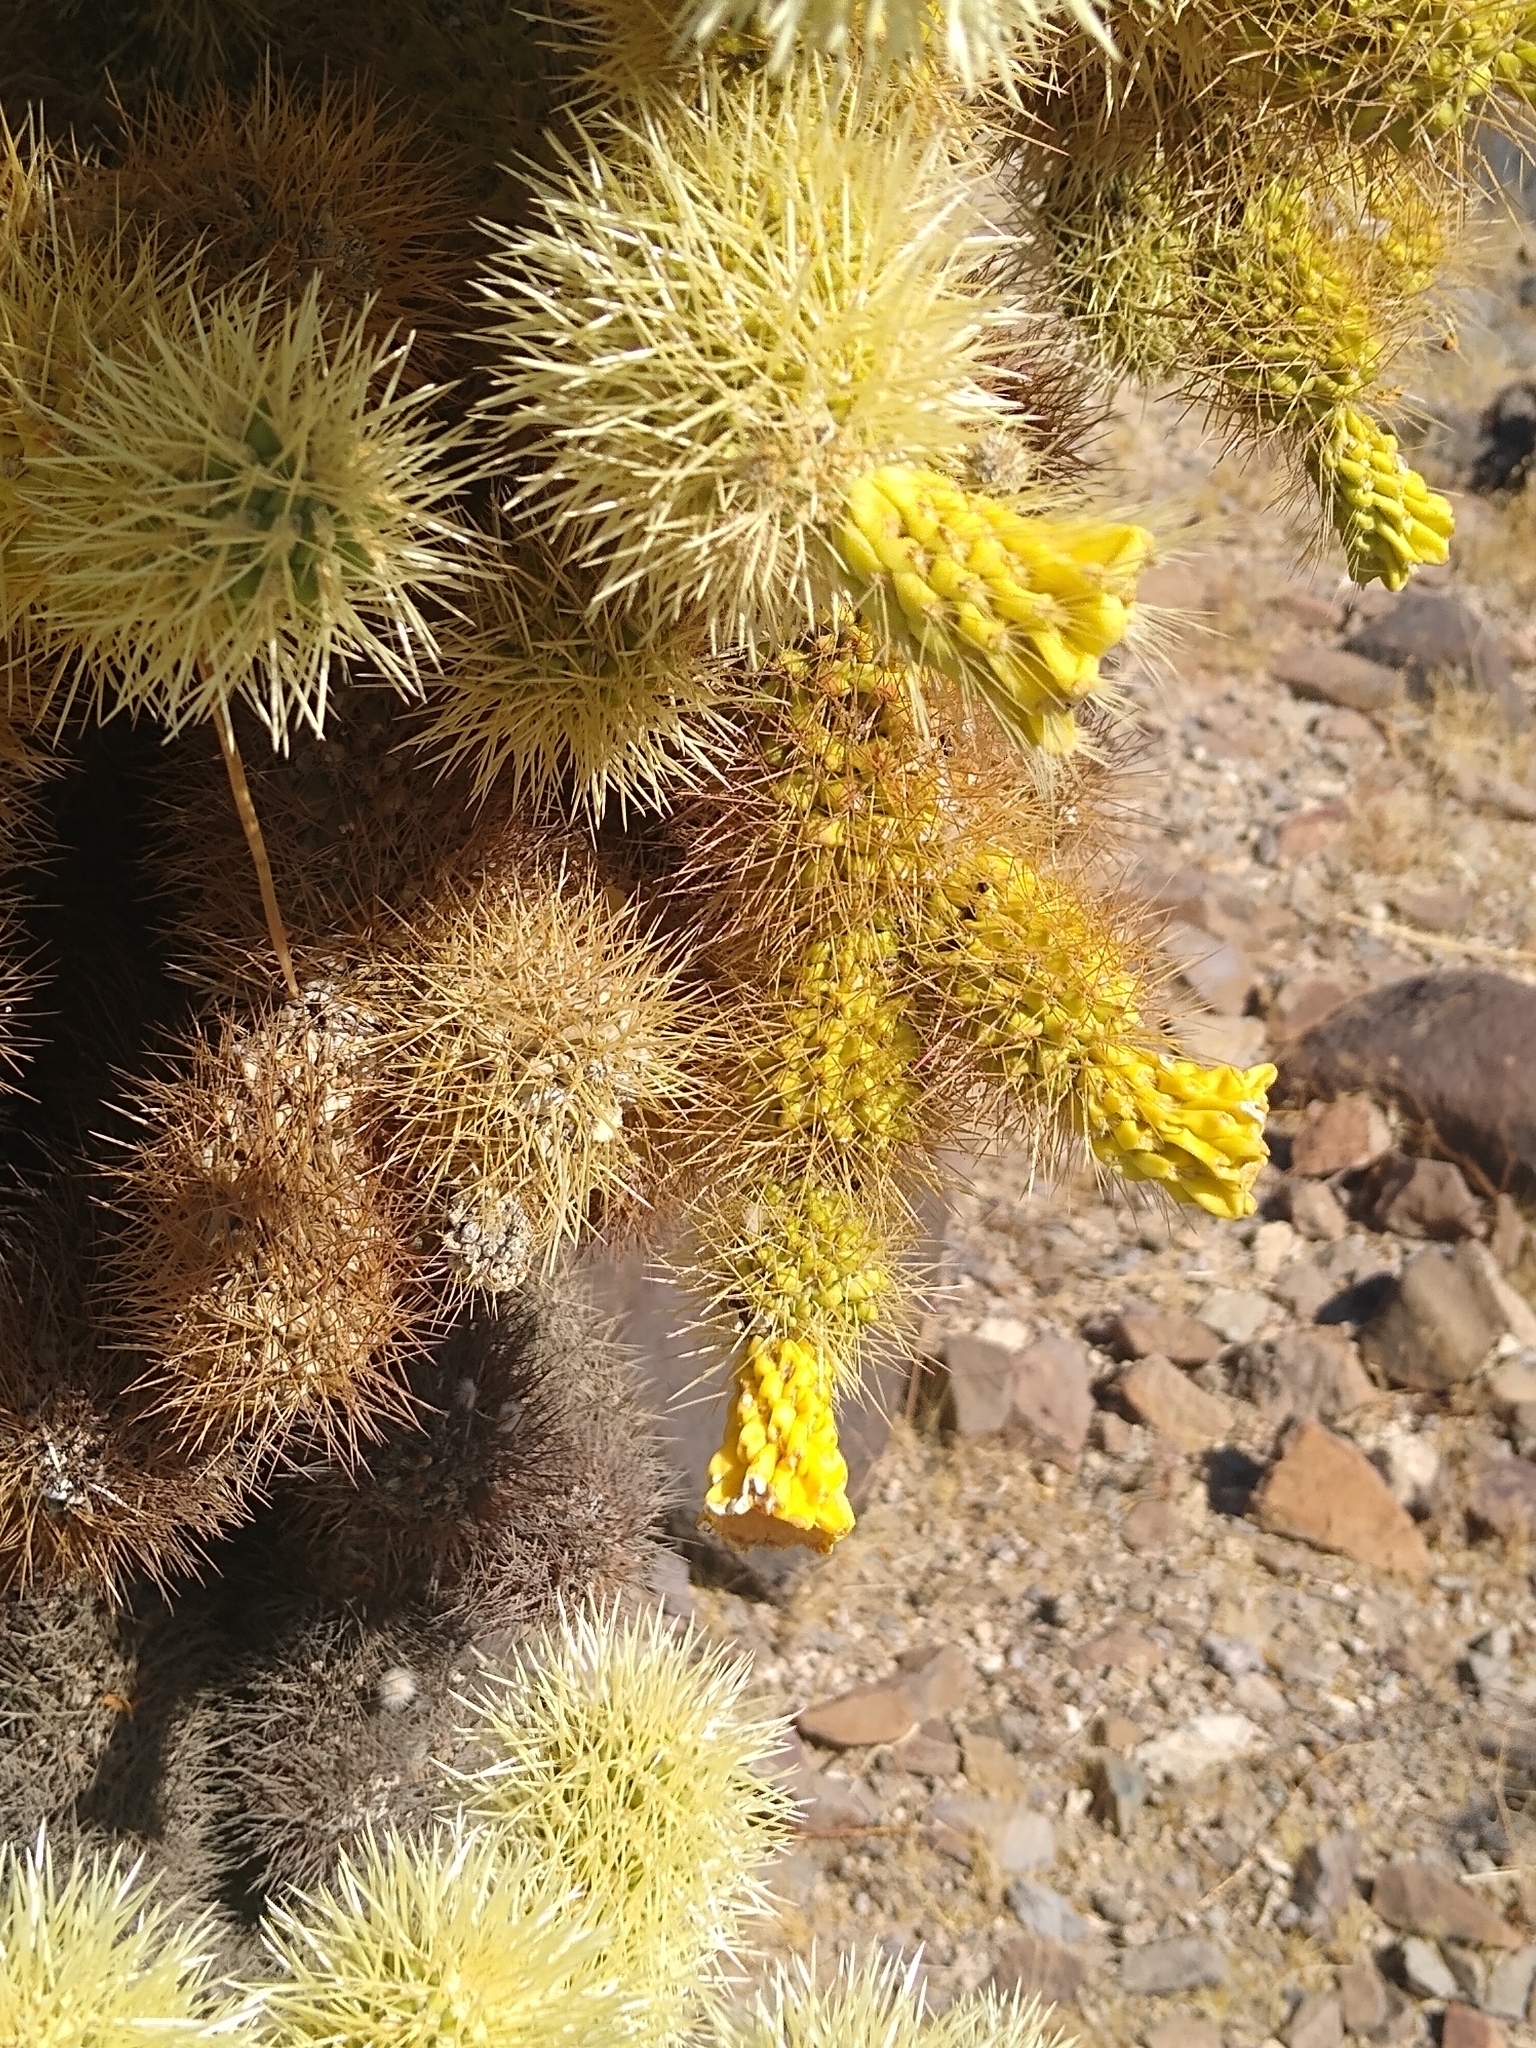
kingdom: Plantae
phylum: Tracheophyta
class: Magnoliopsida
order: Caryophyllales
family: Cactaceae
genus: Cylindropuntia
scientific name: Cylindropuntia fosbergii
